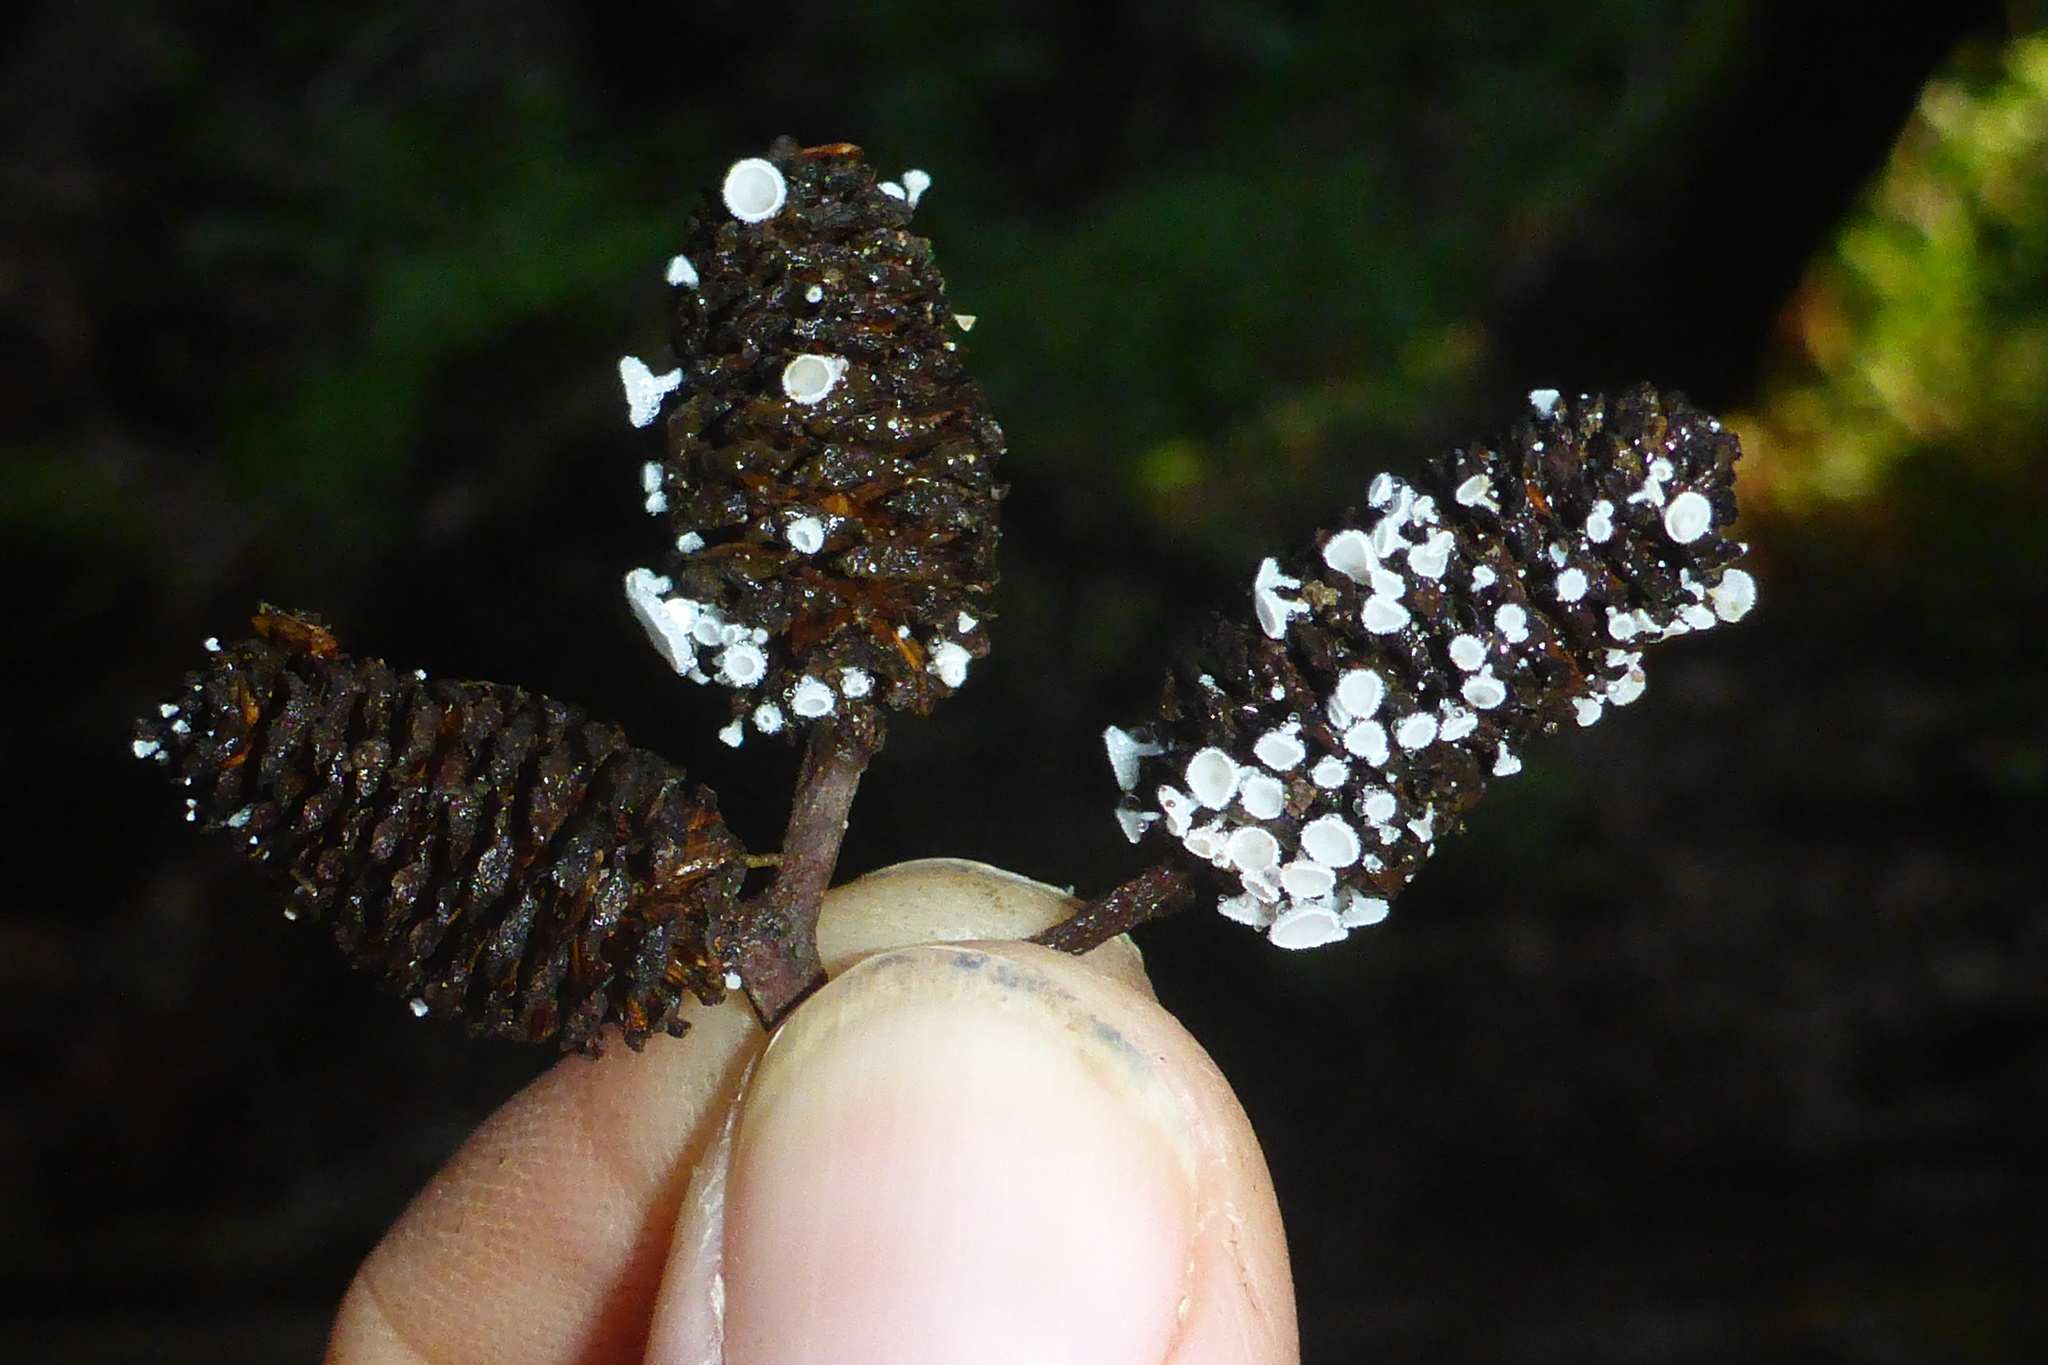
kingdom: Fungi
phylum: Ascomycota
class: Leotiomycetes
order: Helotiales
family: Lachnaceae
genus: Lachnum
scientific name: Lachnum virgineum
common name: Snowy disco
